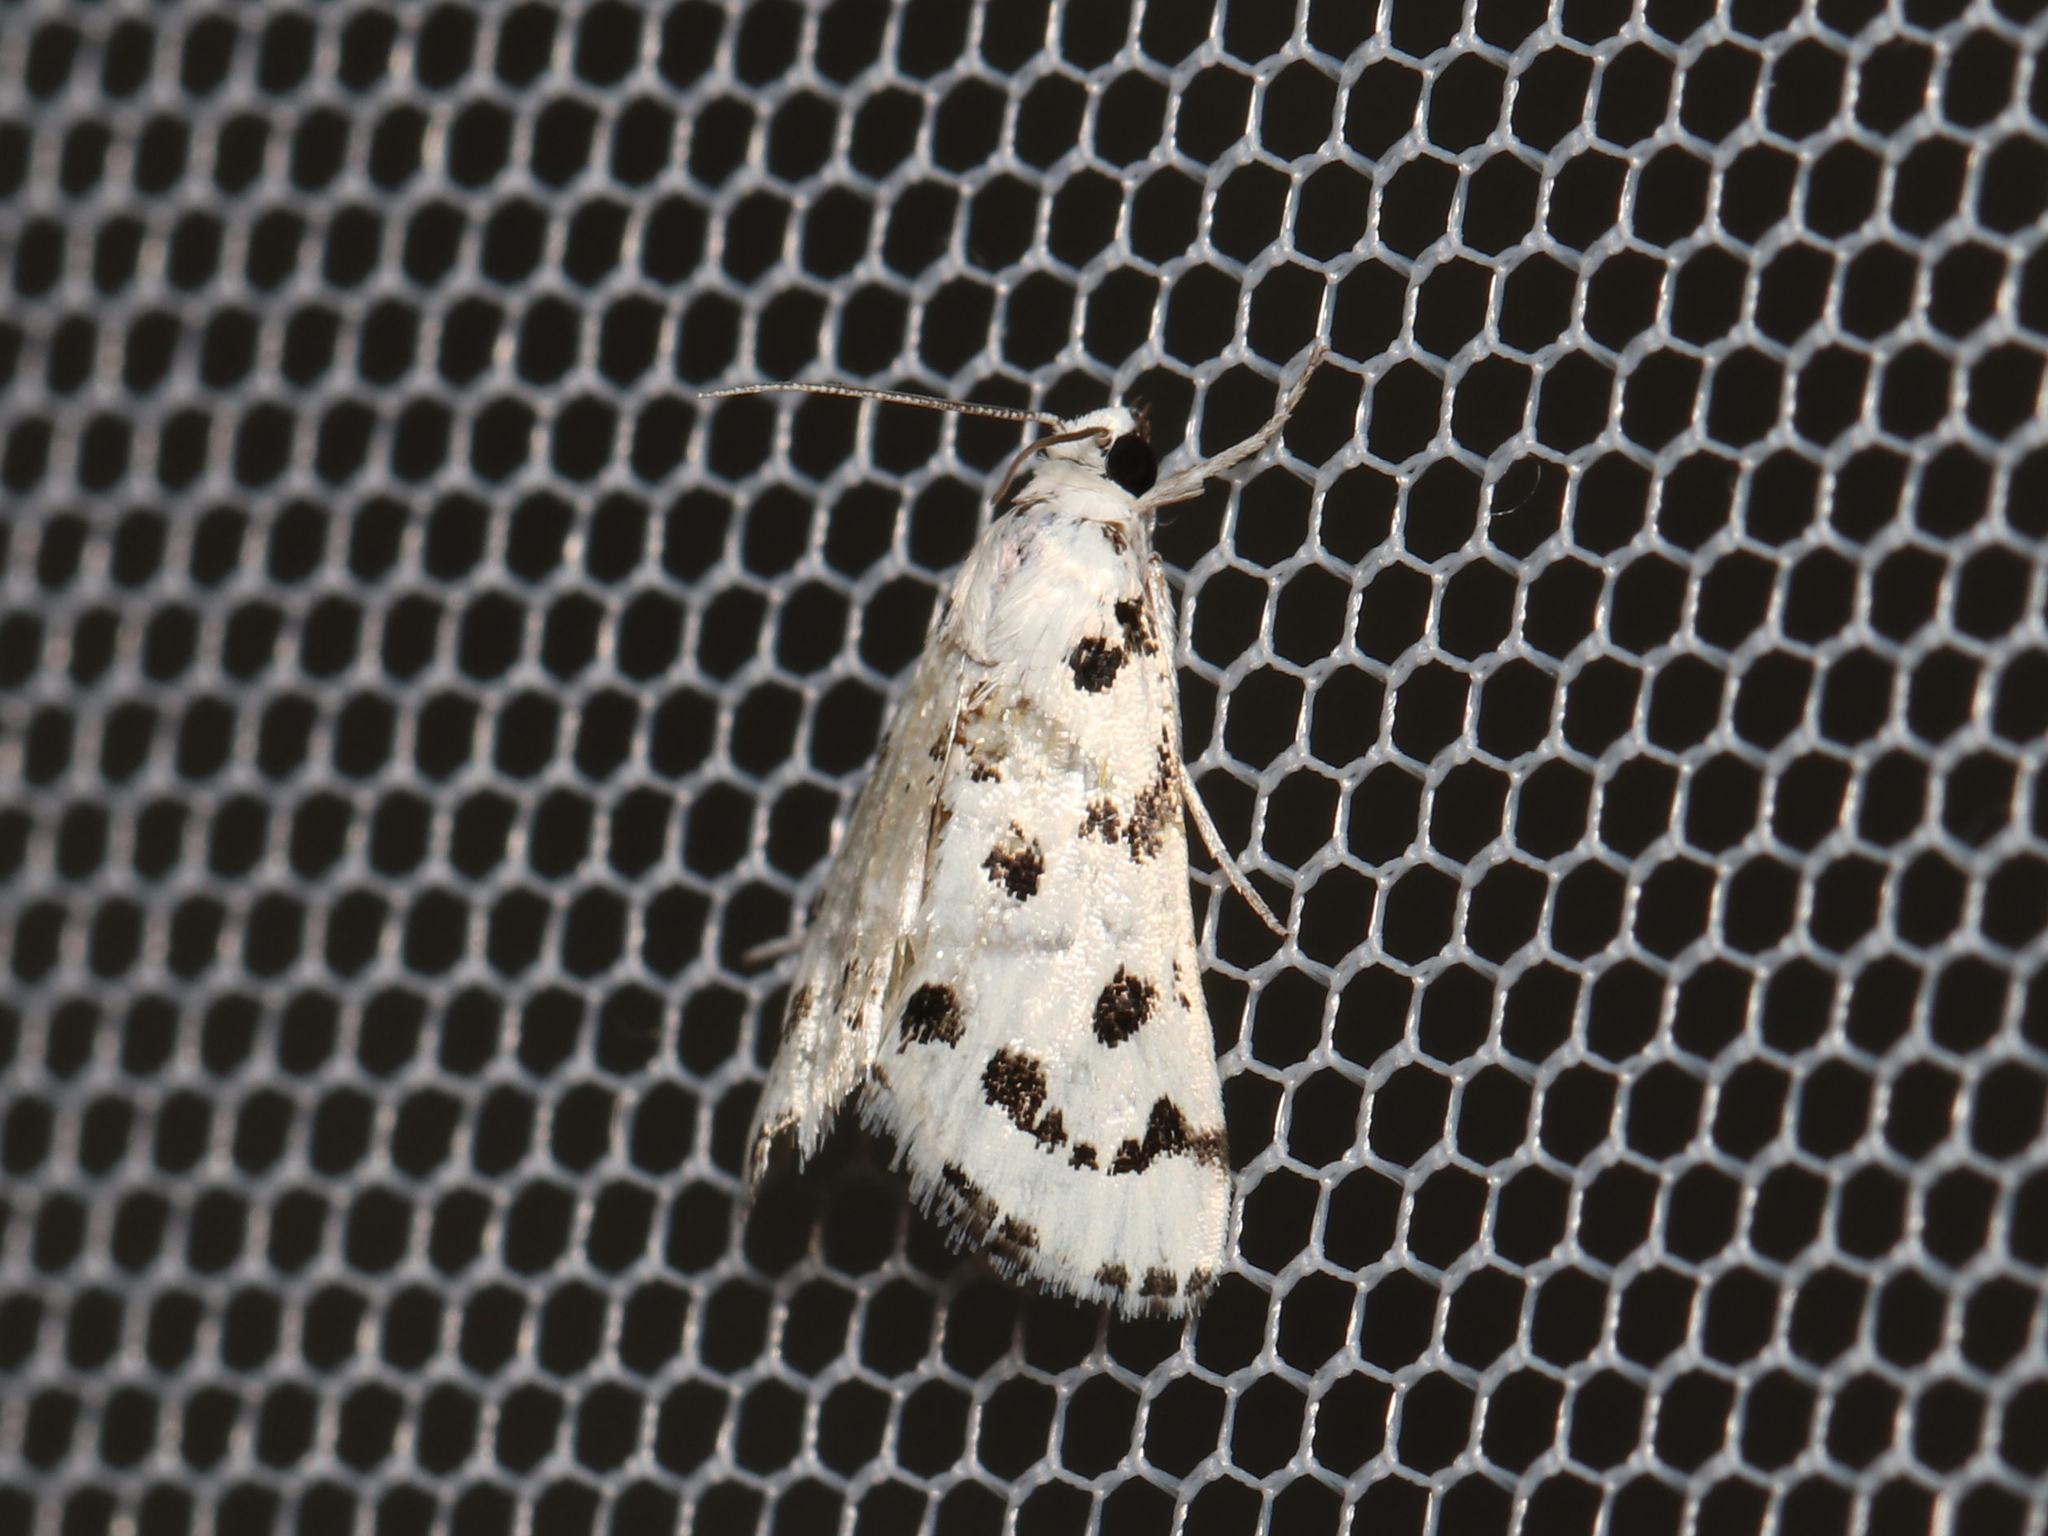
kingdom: Animalia
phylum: Arthropoda
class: Insecta
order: Lepidoptera
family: Crambidae
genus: Eustixia
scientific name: Eustixia pupula
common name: American cabbage pearl
